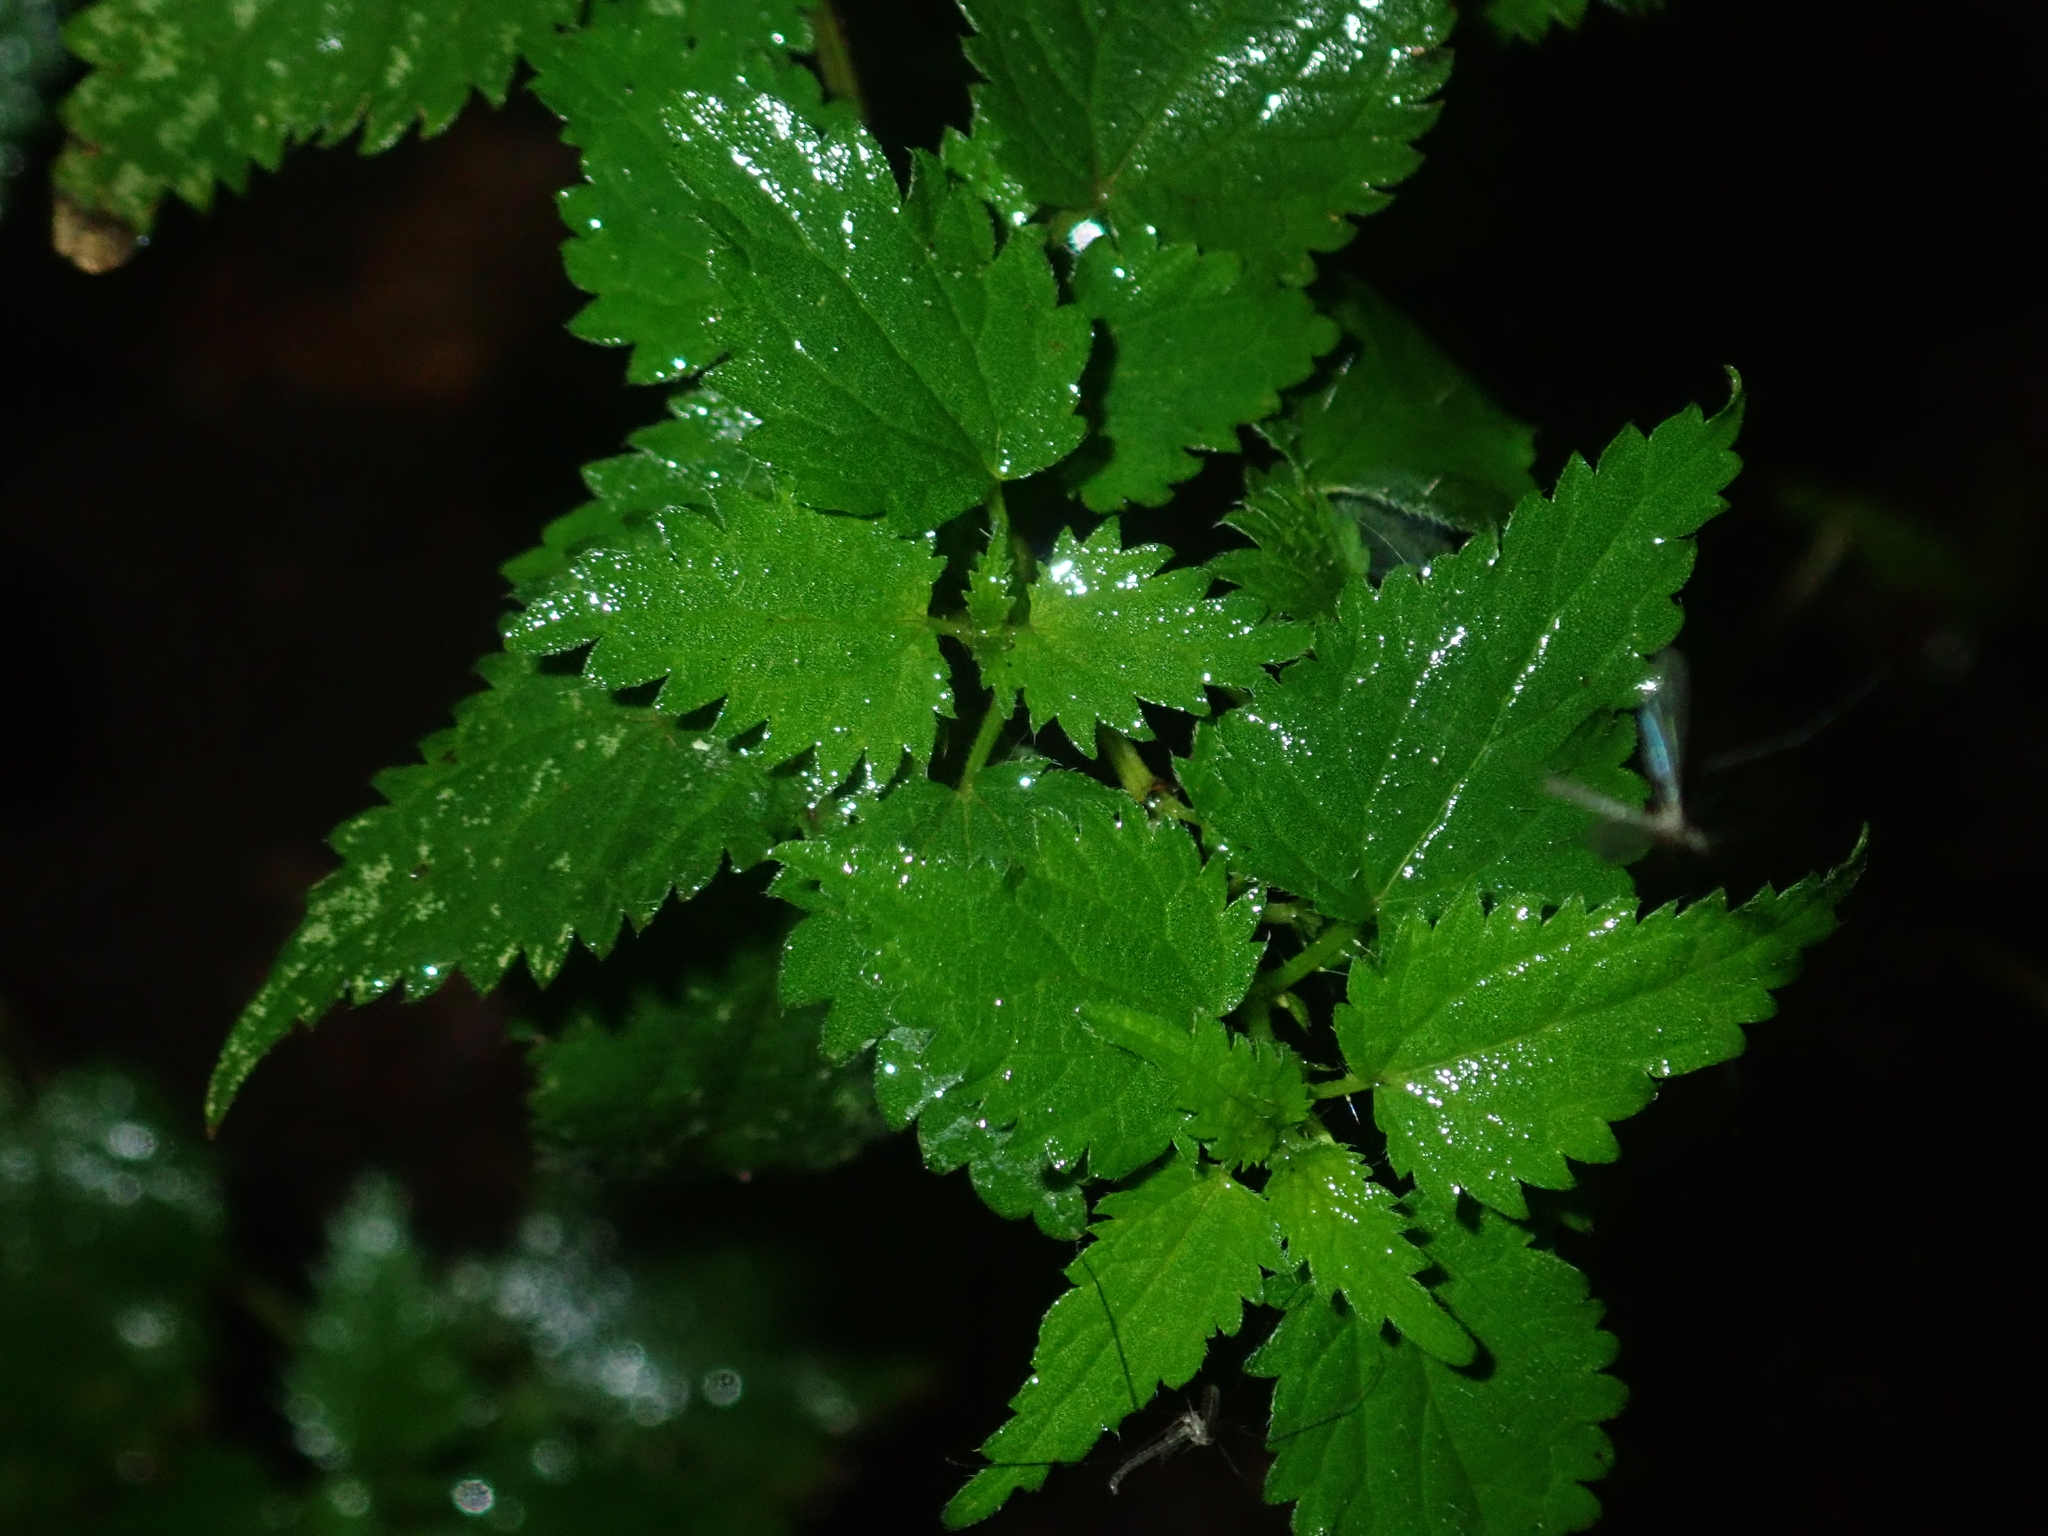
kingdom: Plantae
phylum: Tracheophyta
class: Magnoliopsida
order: Rosales
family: Urticaceae
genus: Urtica
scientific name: Urtica dioica
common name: Common nettle
